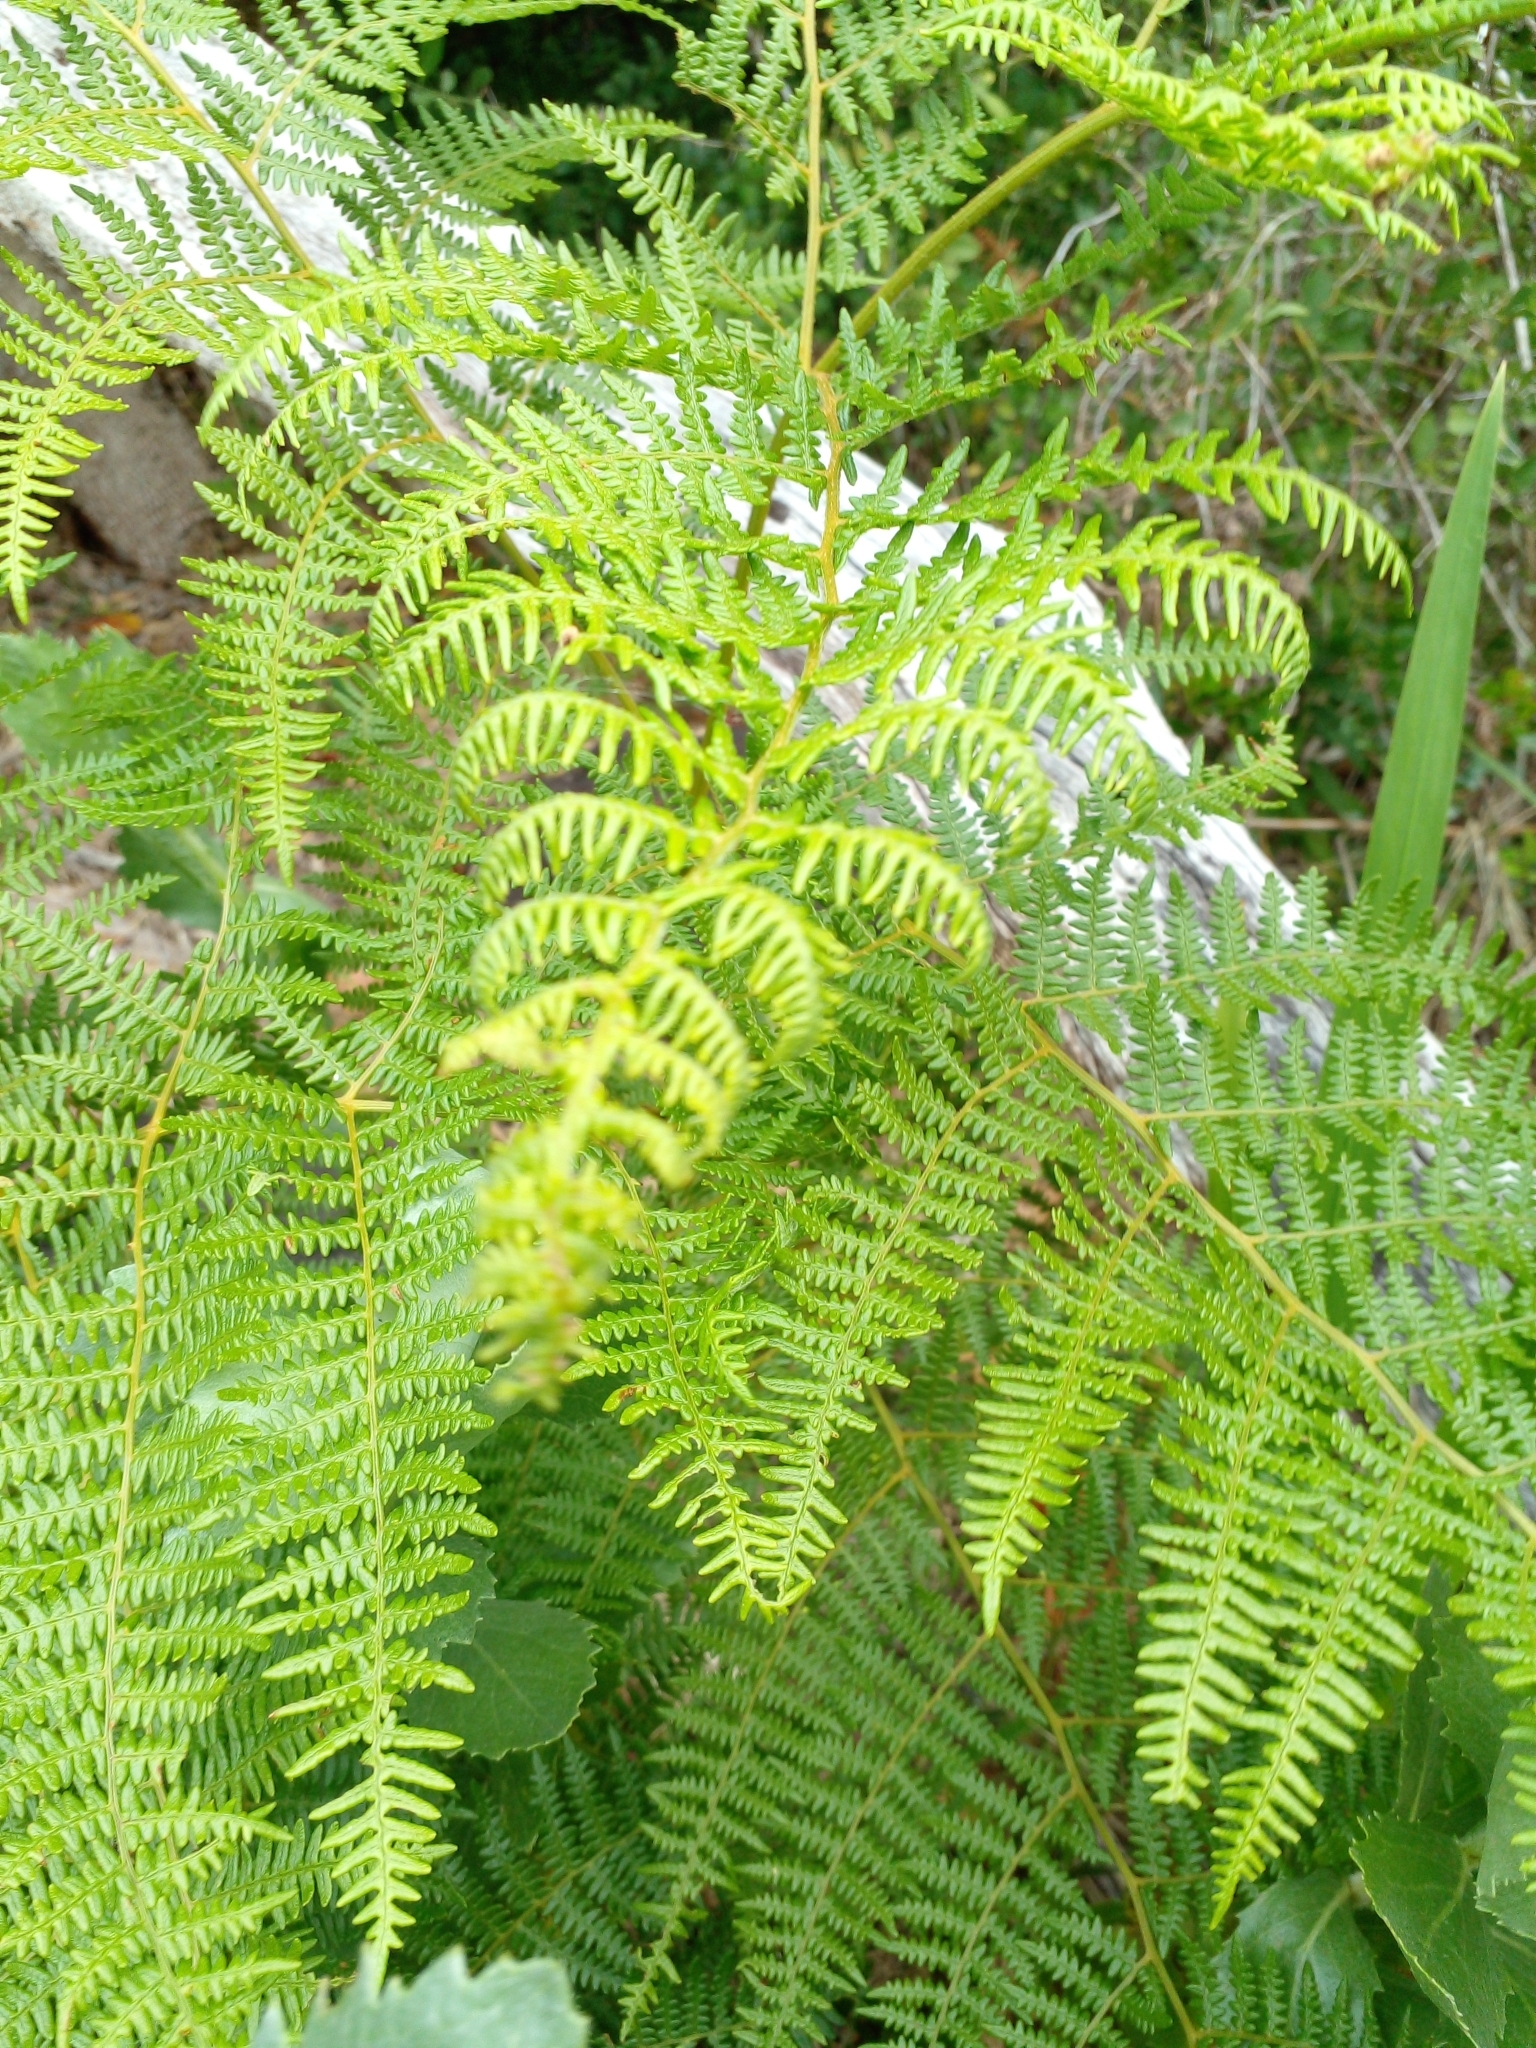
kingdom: Plantae
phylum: Tracheophyta
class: Polypodiopsida
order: Polypodiales
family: Dennstaedtiaceae
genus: Pteridium
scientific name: Pteridium aquilinum
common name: Bracken
